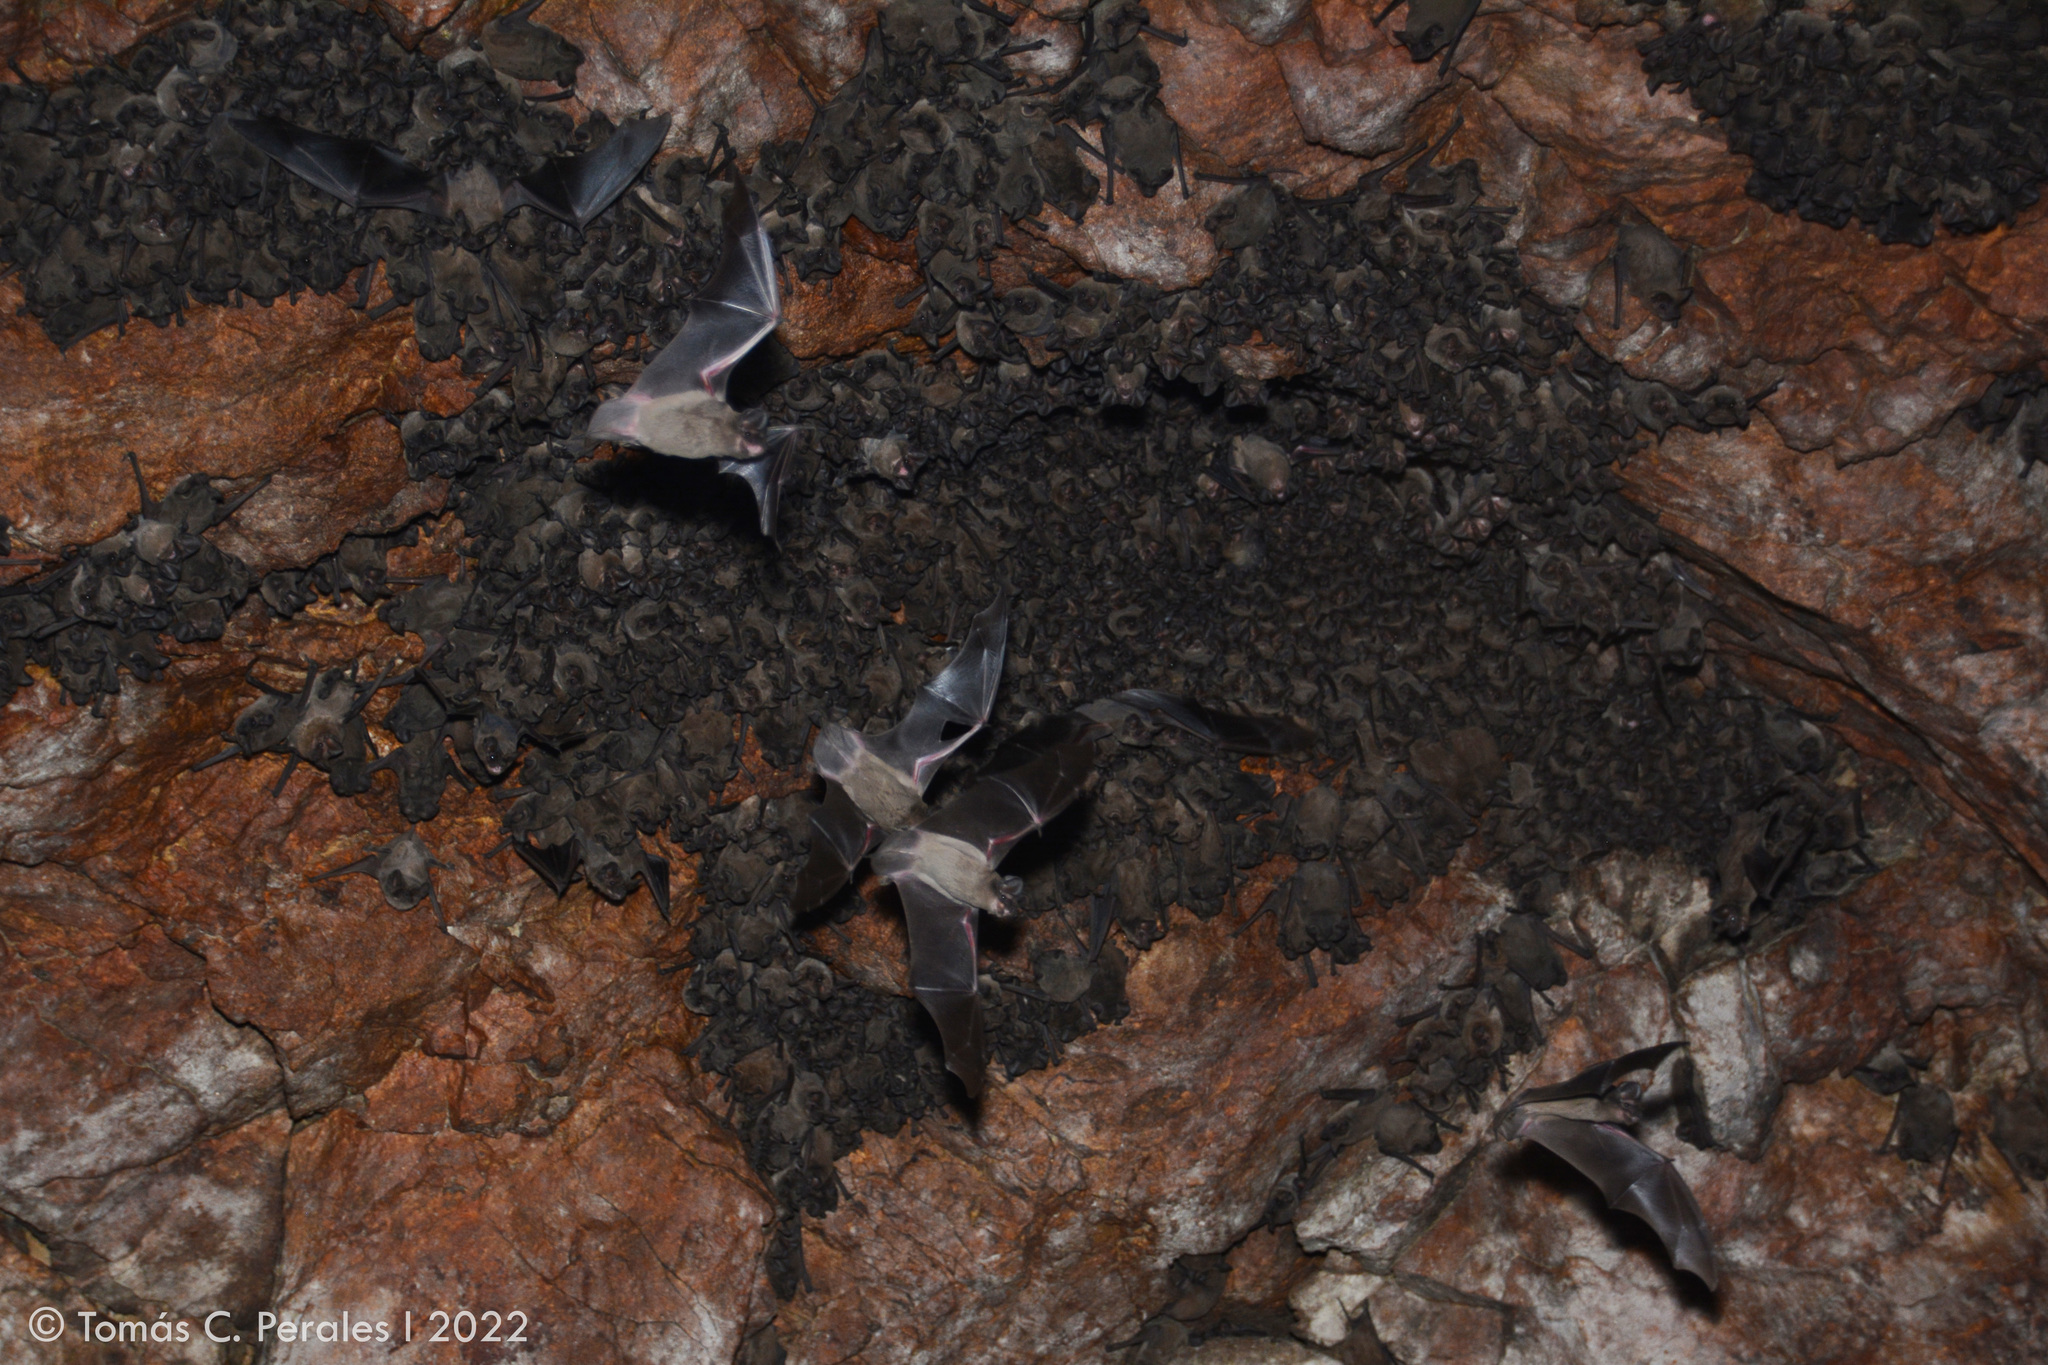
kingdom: Animalia
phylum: Chordata
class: Mammalia
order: Chiroptera
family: Molossidae
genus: Tadarida
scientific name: Tadarida brasiliensis
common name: Mexican free-tailed bat
